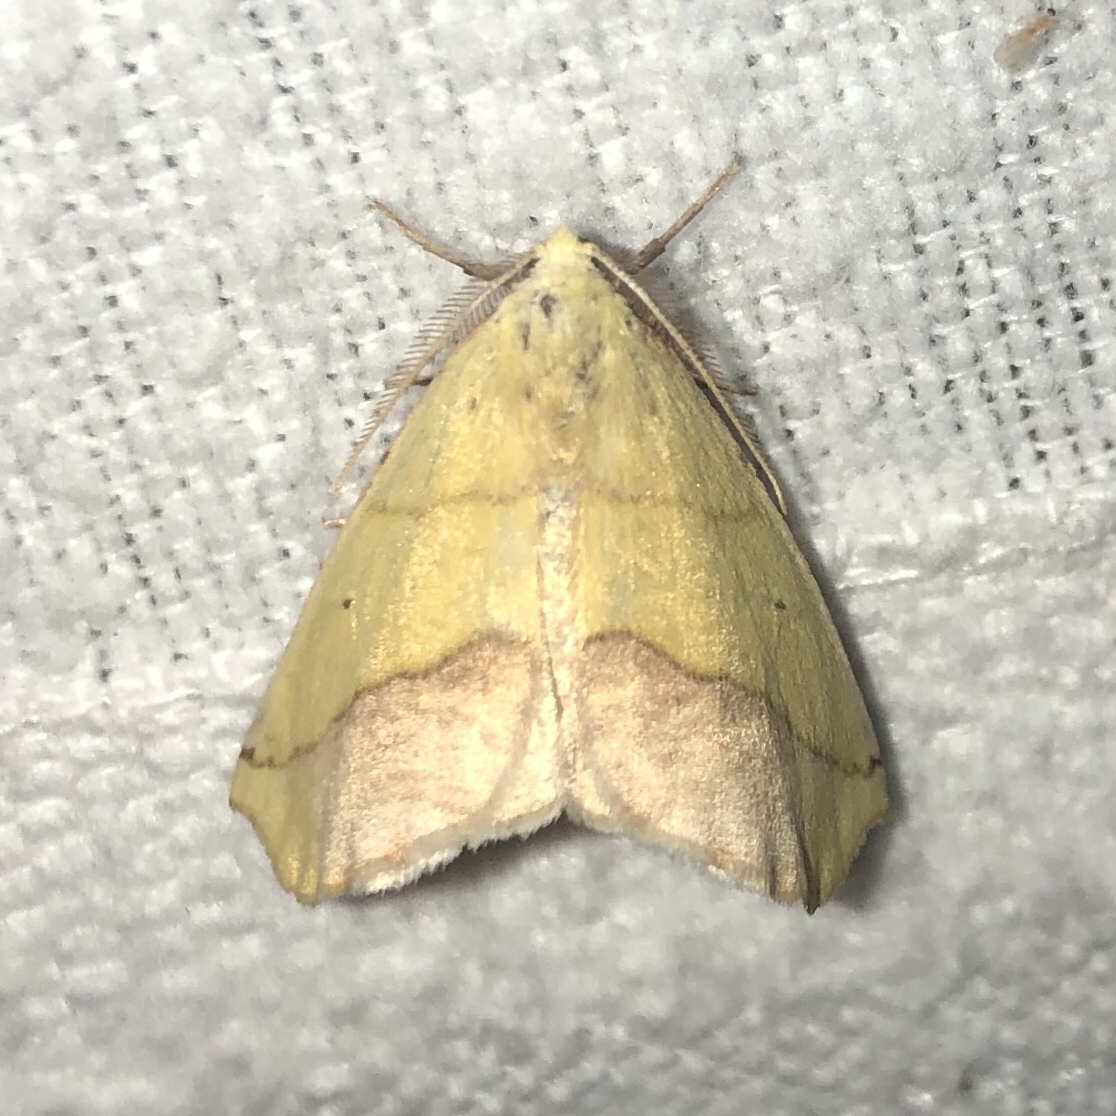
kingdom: Animalia
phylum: Arthropoda
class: Insecta
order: Lepidoptera
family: Geometridae
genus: Sicya
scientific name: Sicya macularia
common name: Sharp-lined yellow
